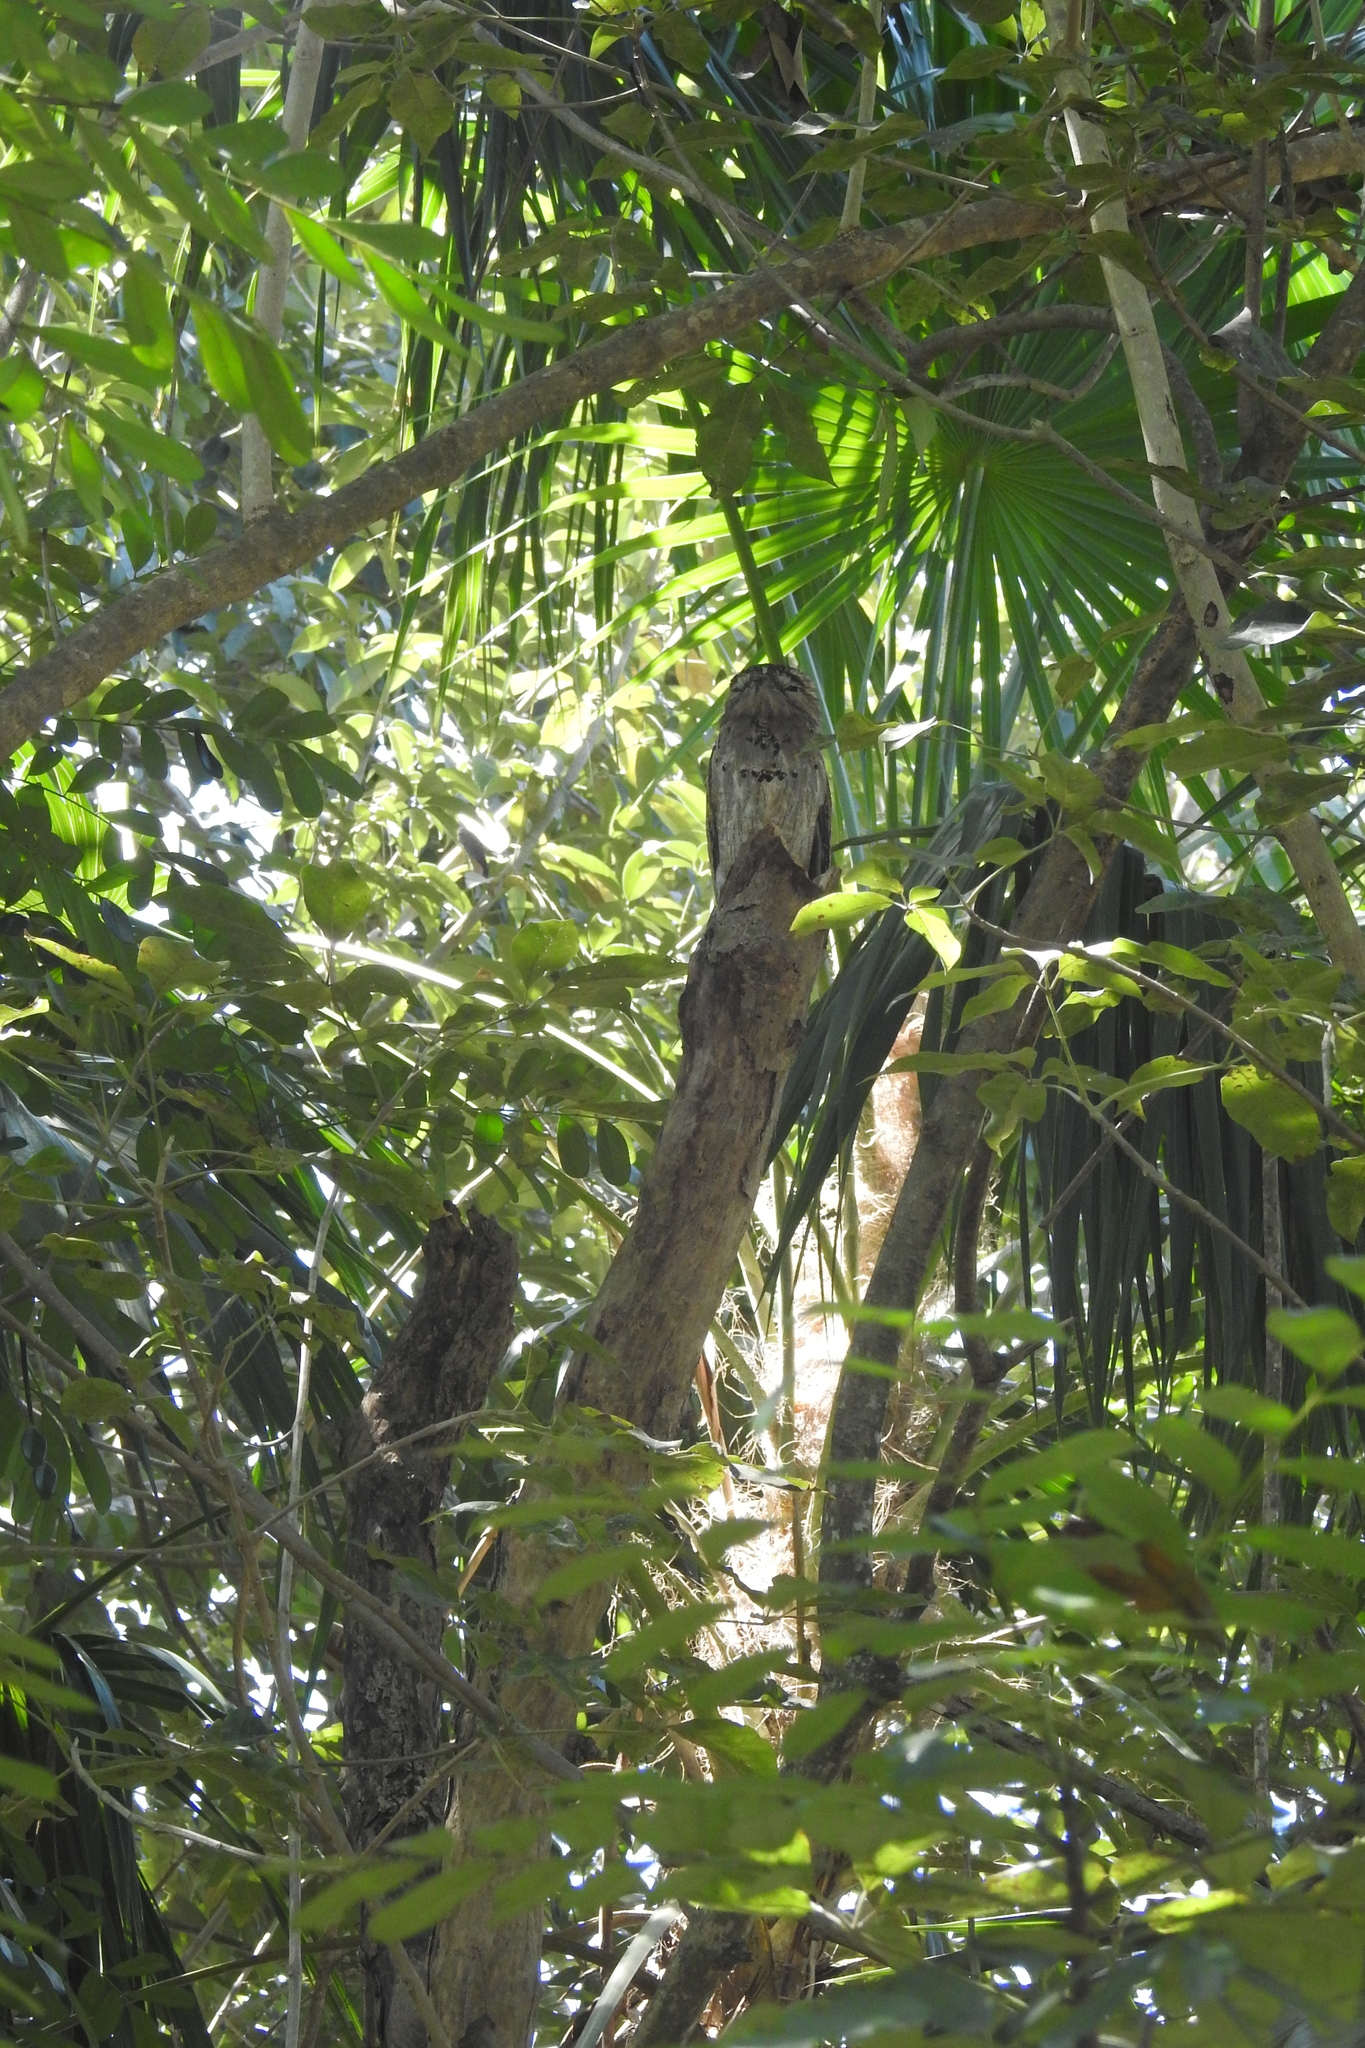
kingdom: Animalia
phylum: Chordata
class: Aves
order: Nyctibiiformes
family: Nyctibiidae
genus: Nyctibius
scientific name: Nyctibius jamaicensis
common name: Northern potoo
